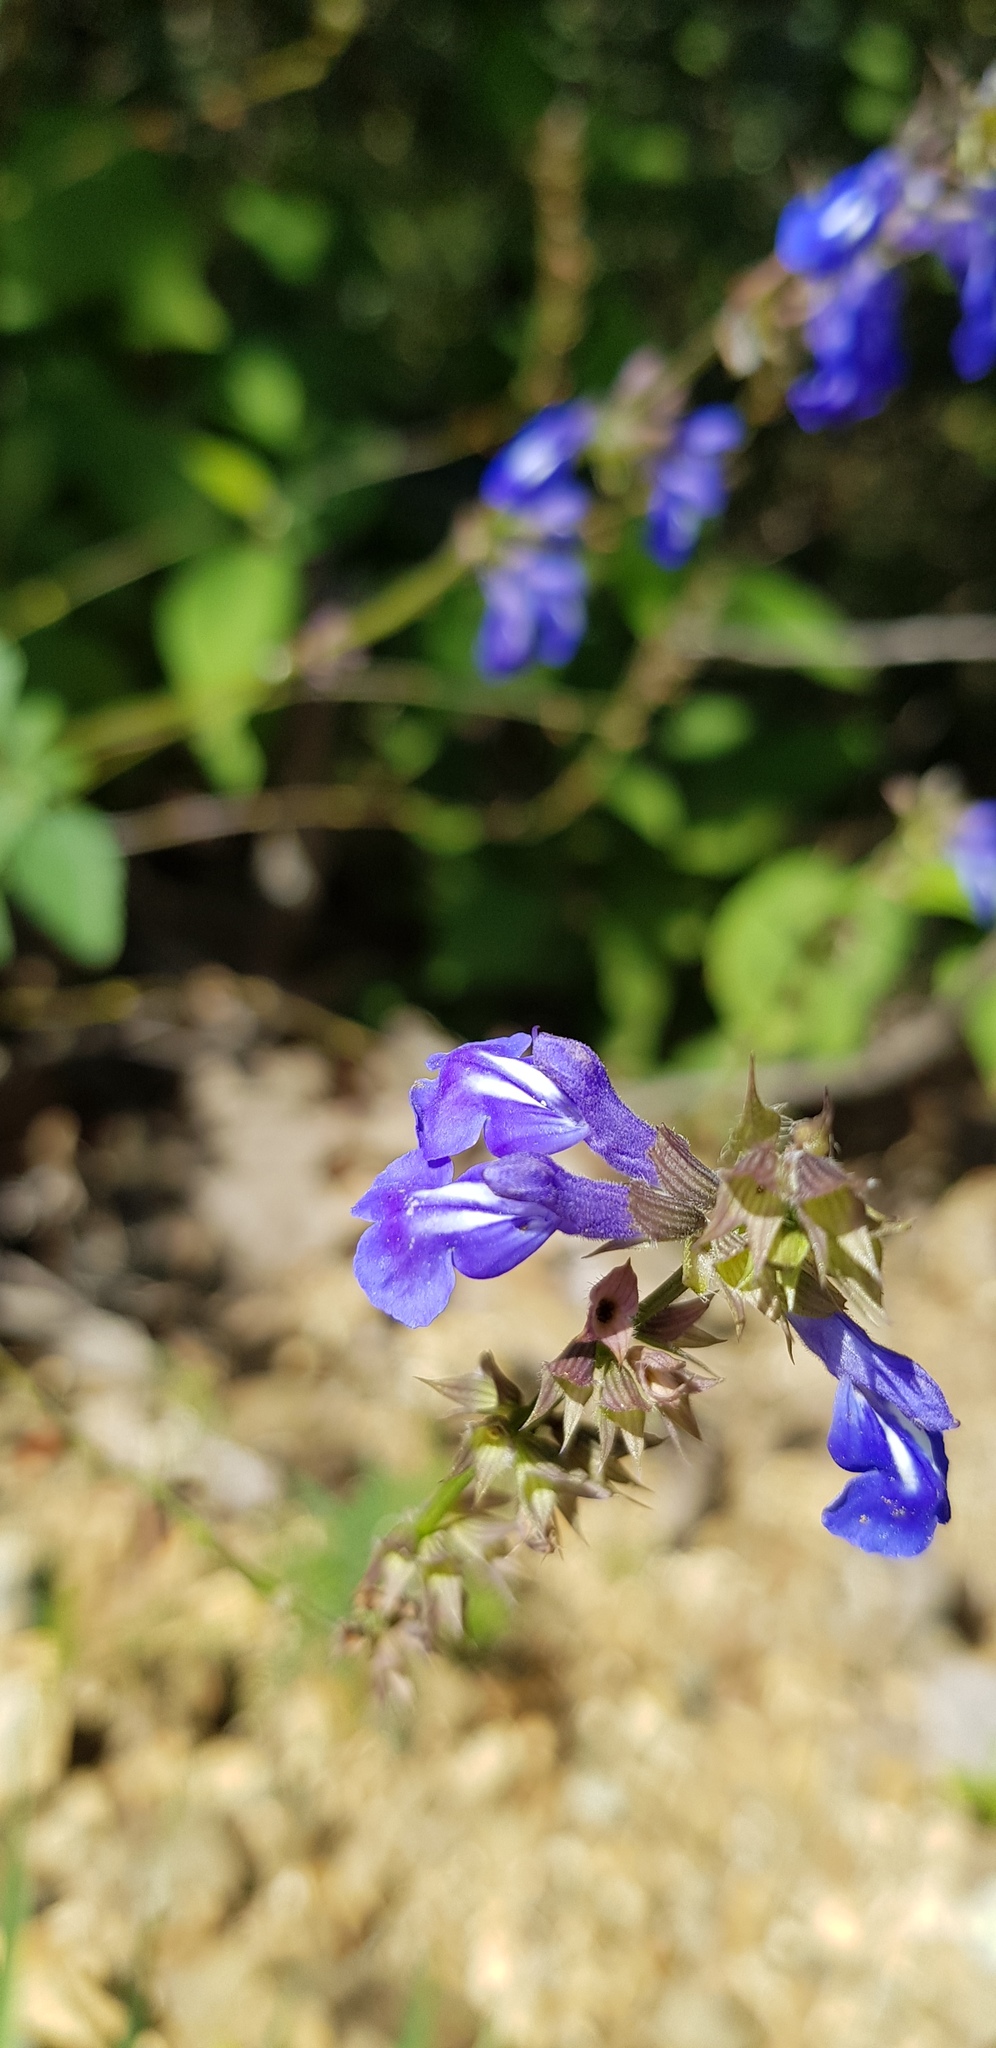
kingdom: Plantae
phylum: Tracheophyta
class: Magnoliopsida
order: Lamiales
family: Lamiaceae
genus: Salvia
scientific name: Salvia setulosa
